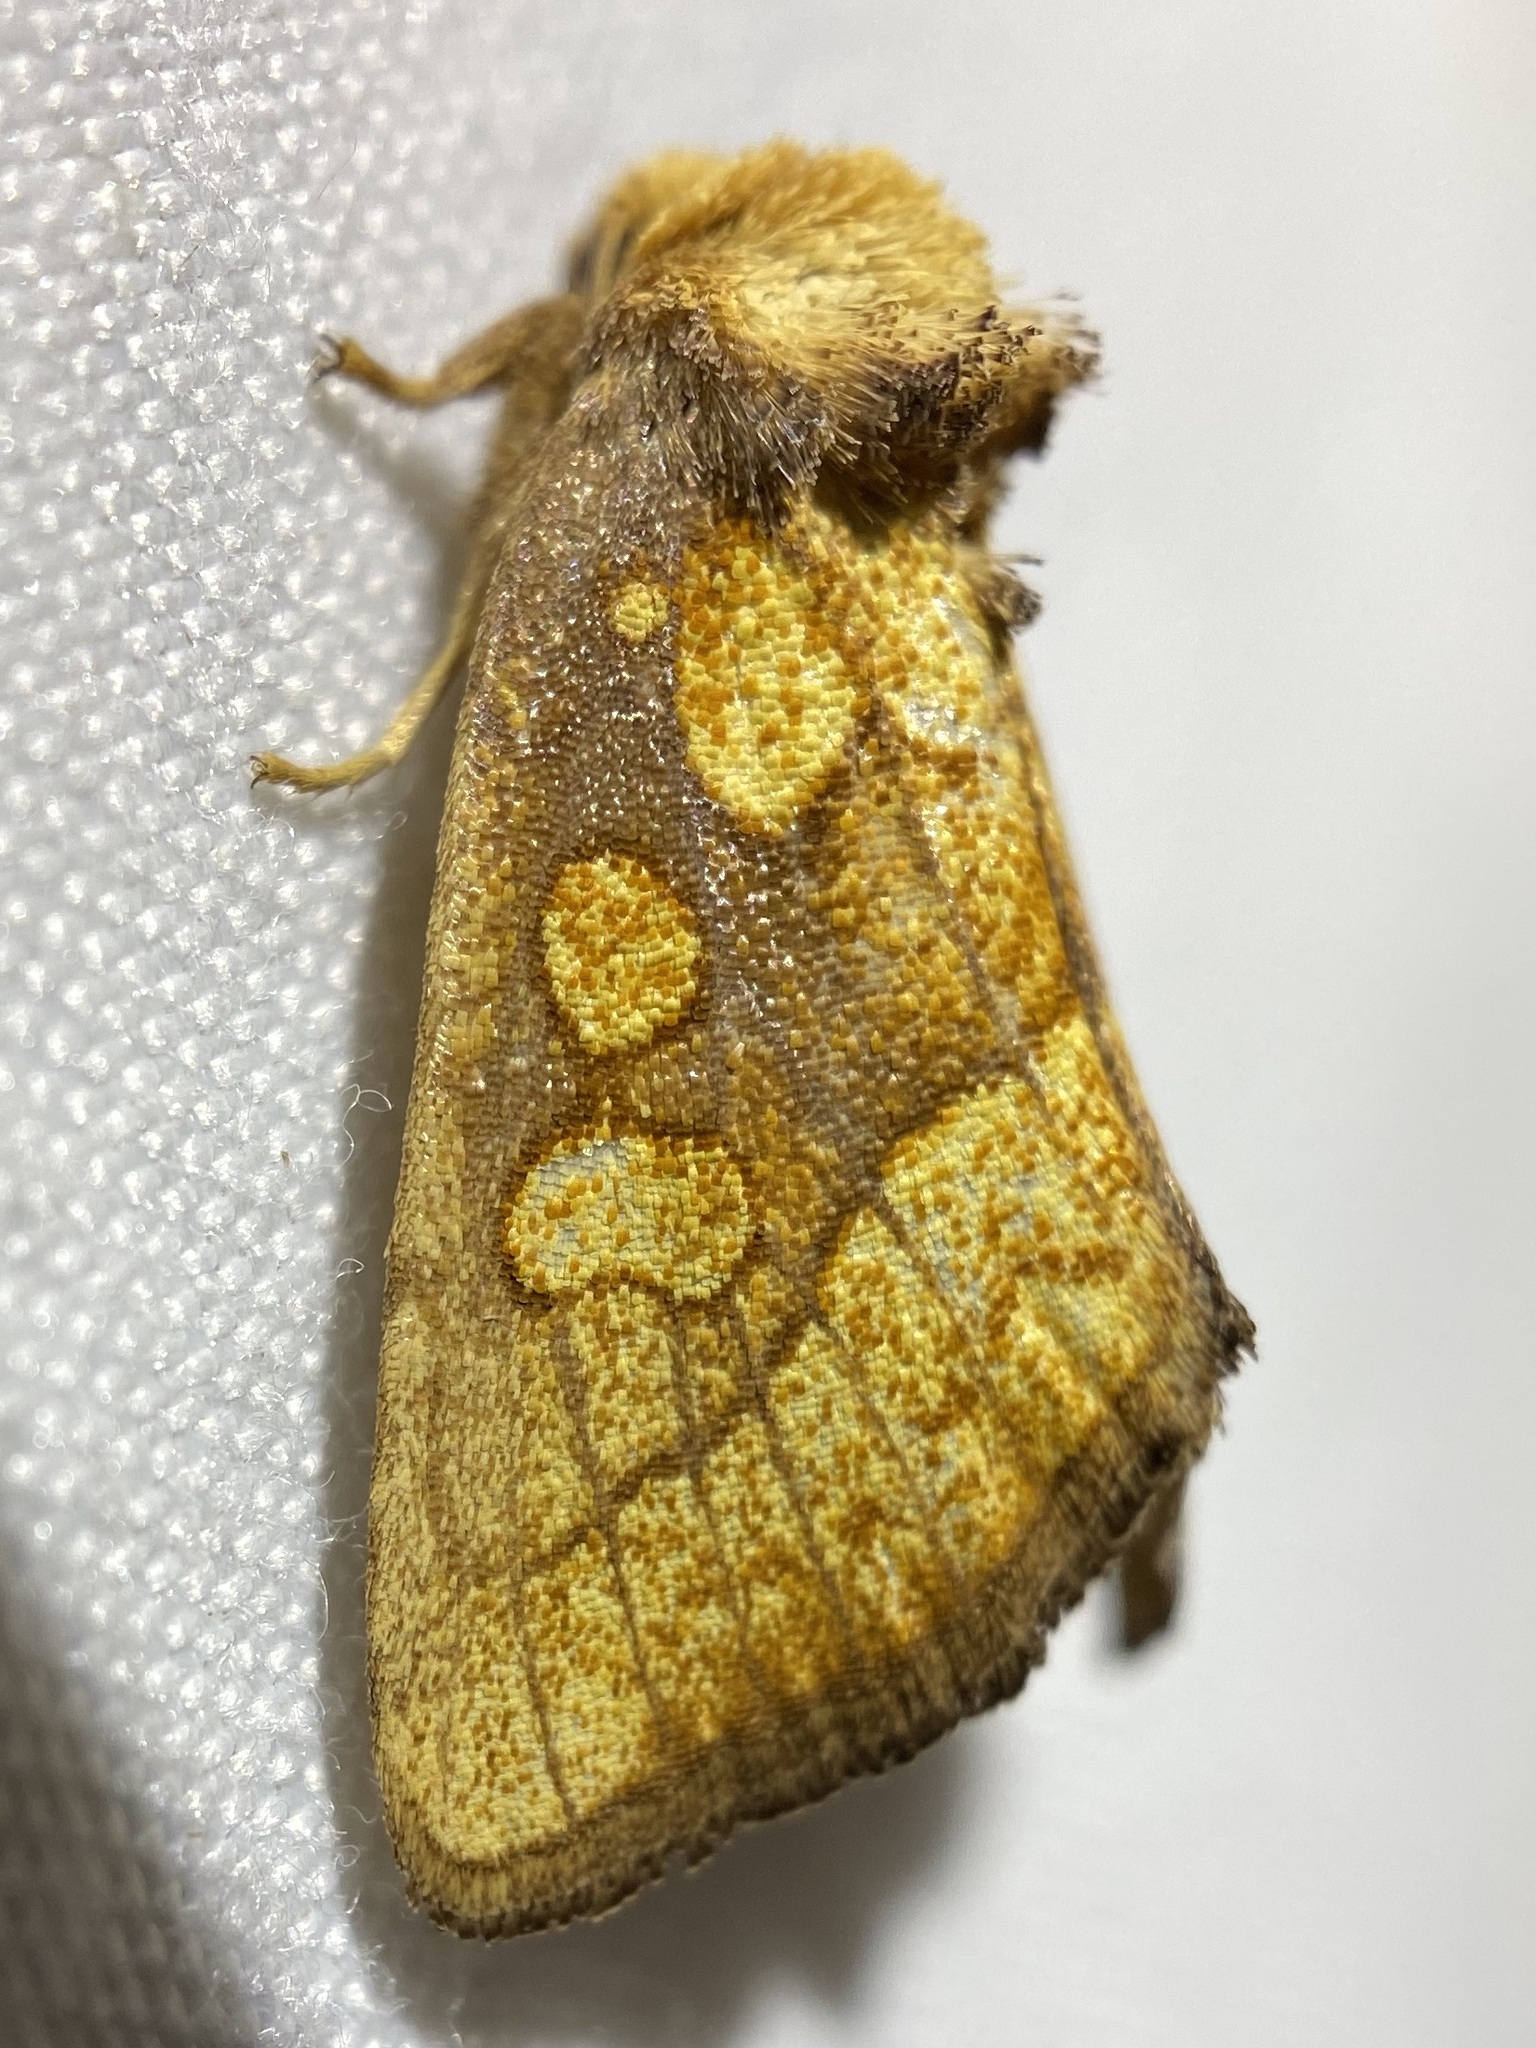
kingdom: Animalia
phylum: Arthropoda
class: Insecta
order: Lepidoptera
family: Noctuidae
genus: Nocloa
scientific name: Nocloa alcandra
